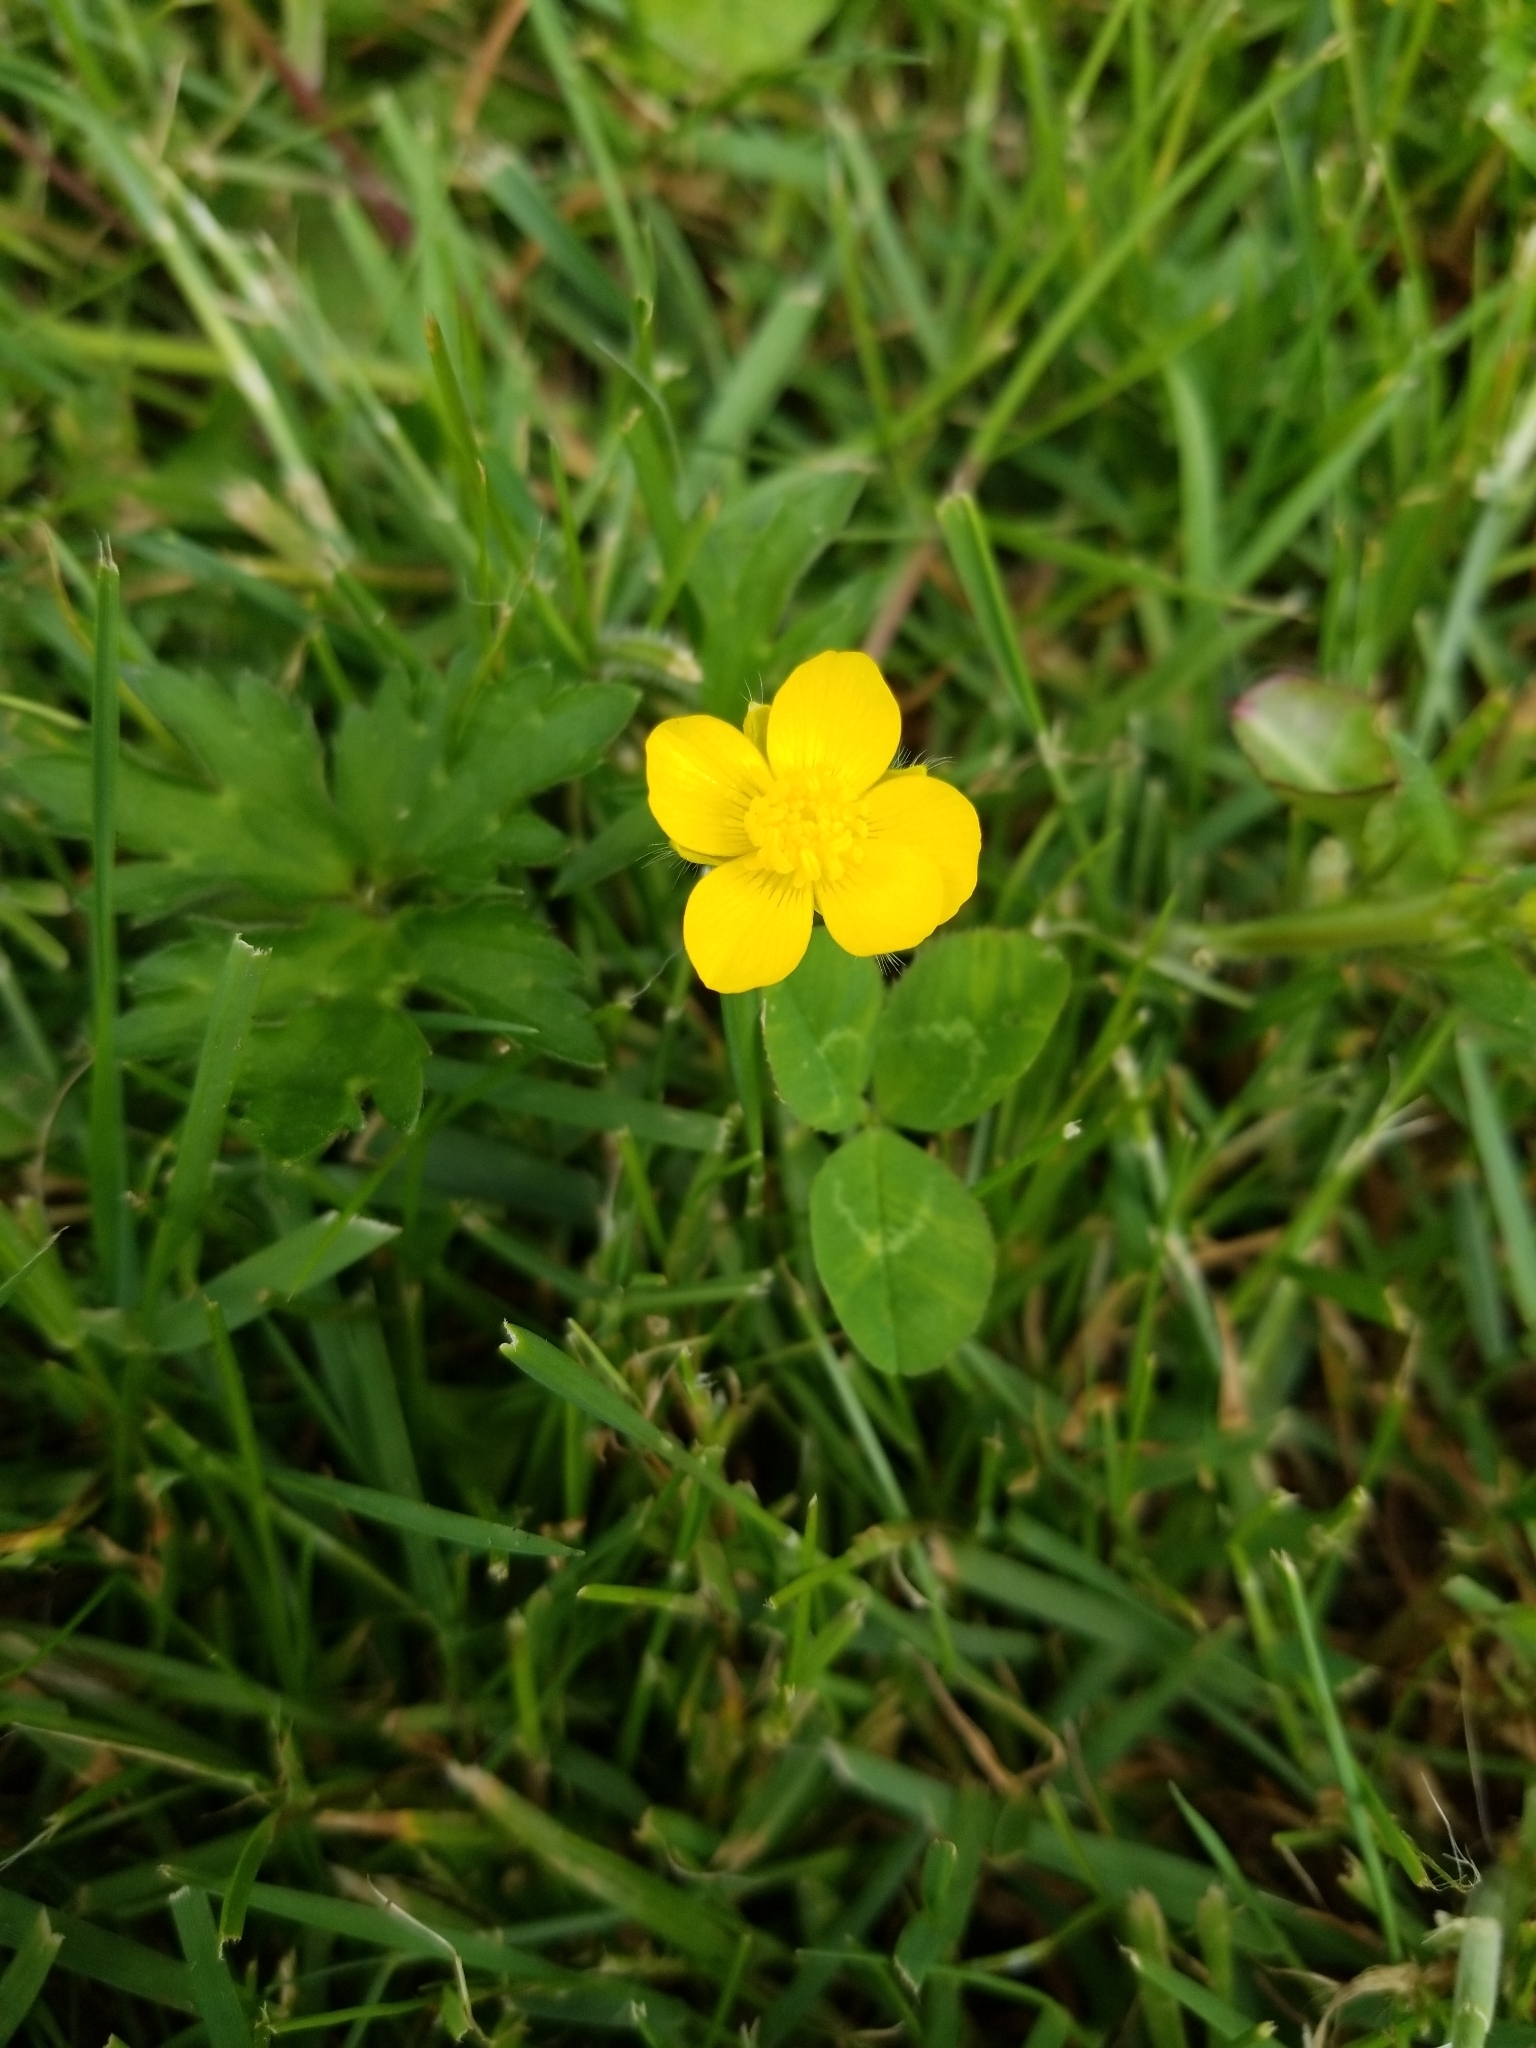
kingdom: Plantae
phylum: Tracheophyta
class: Magnoliopsida
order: Ranunculales
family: Ranunculaceae
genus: Ranunculus
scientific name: Ranunculus repens
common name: Creeping buttercup
